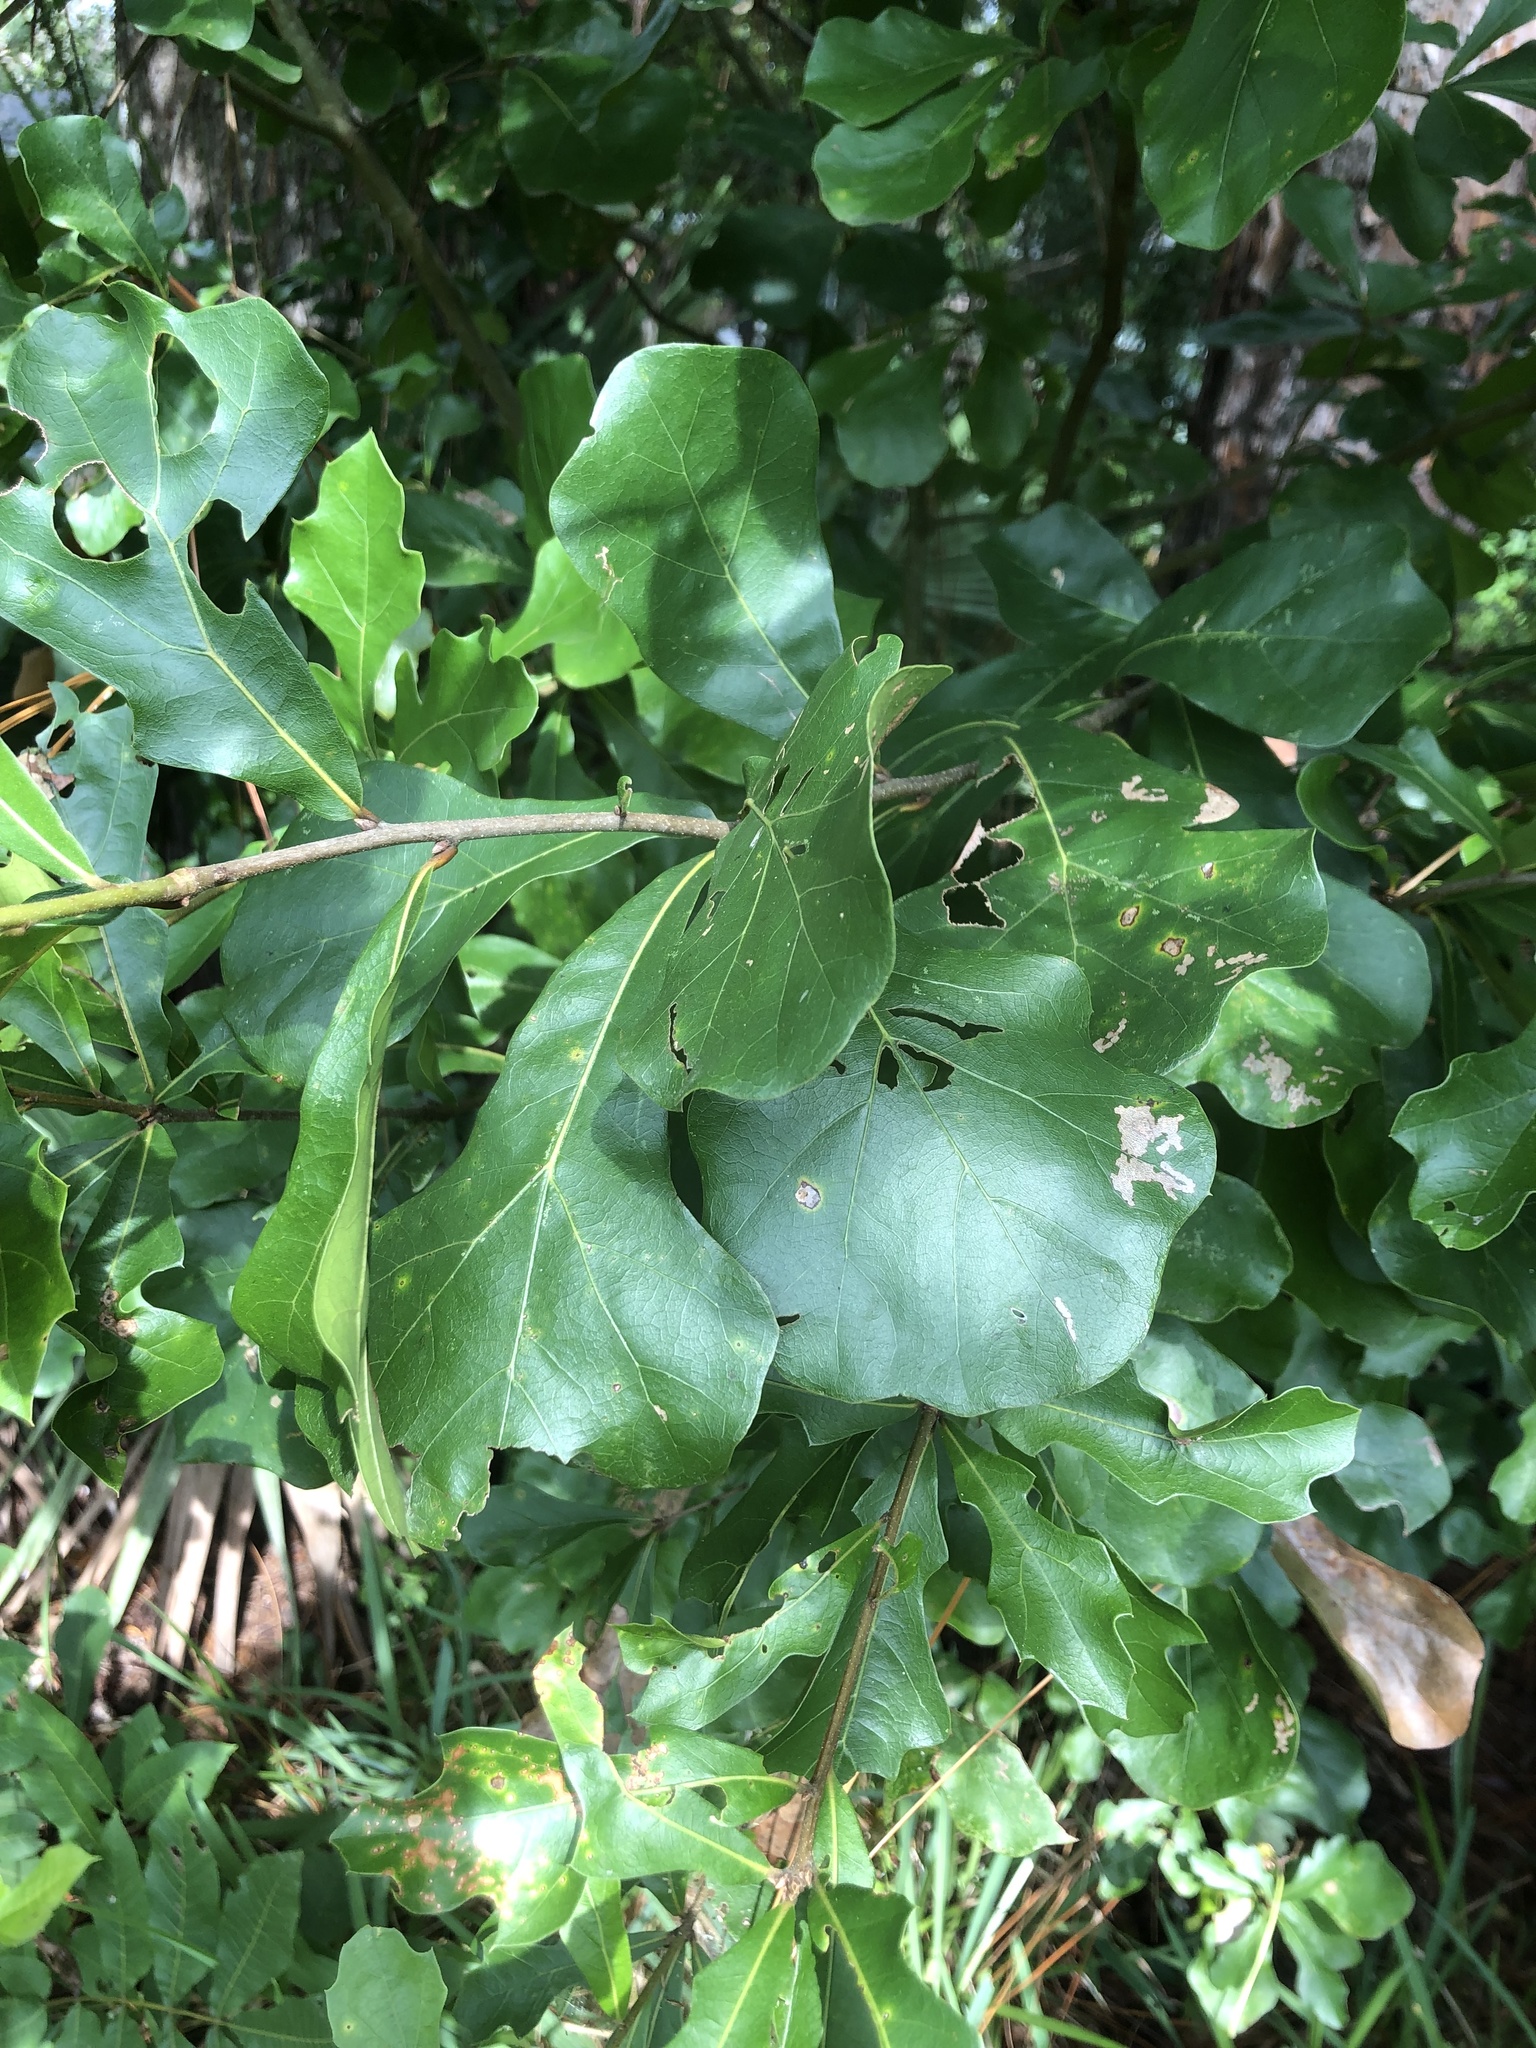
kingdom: Plantae
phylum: Tracheophyta
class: Magnoliopsida
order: Fagales
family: Fagaceae
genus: Quercus
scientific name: Quercus nigra
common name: Water oak
